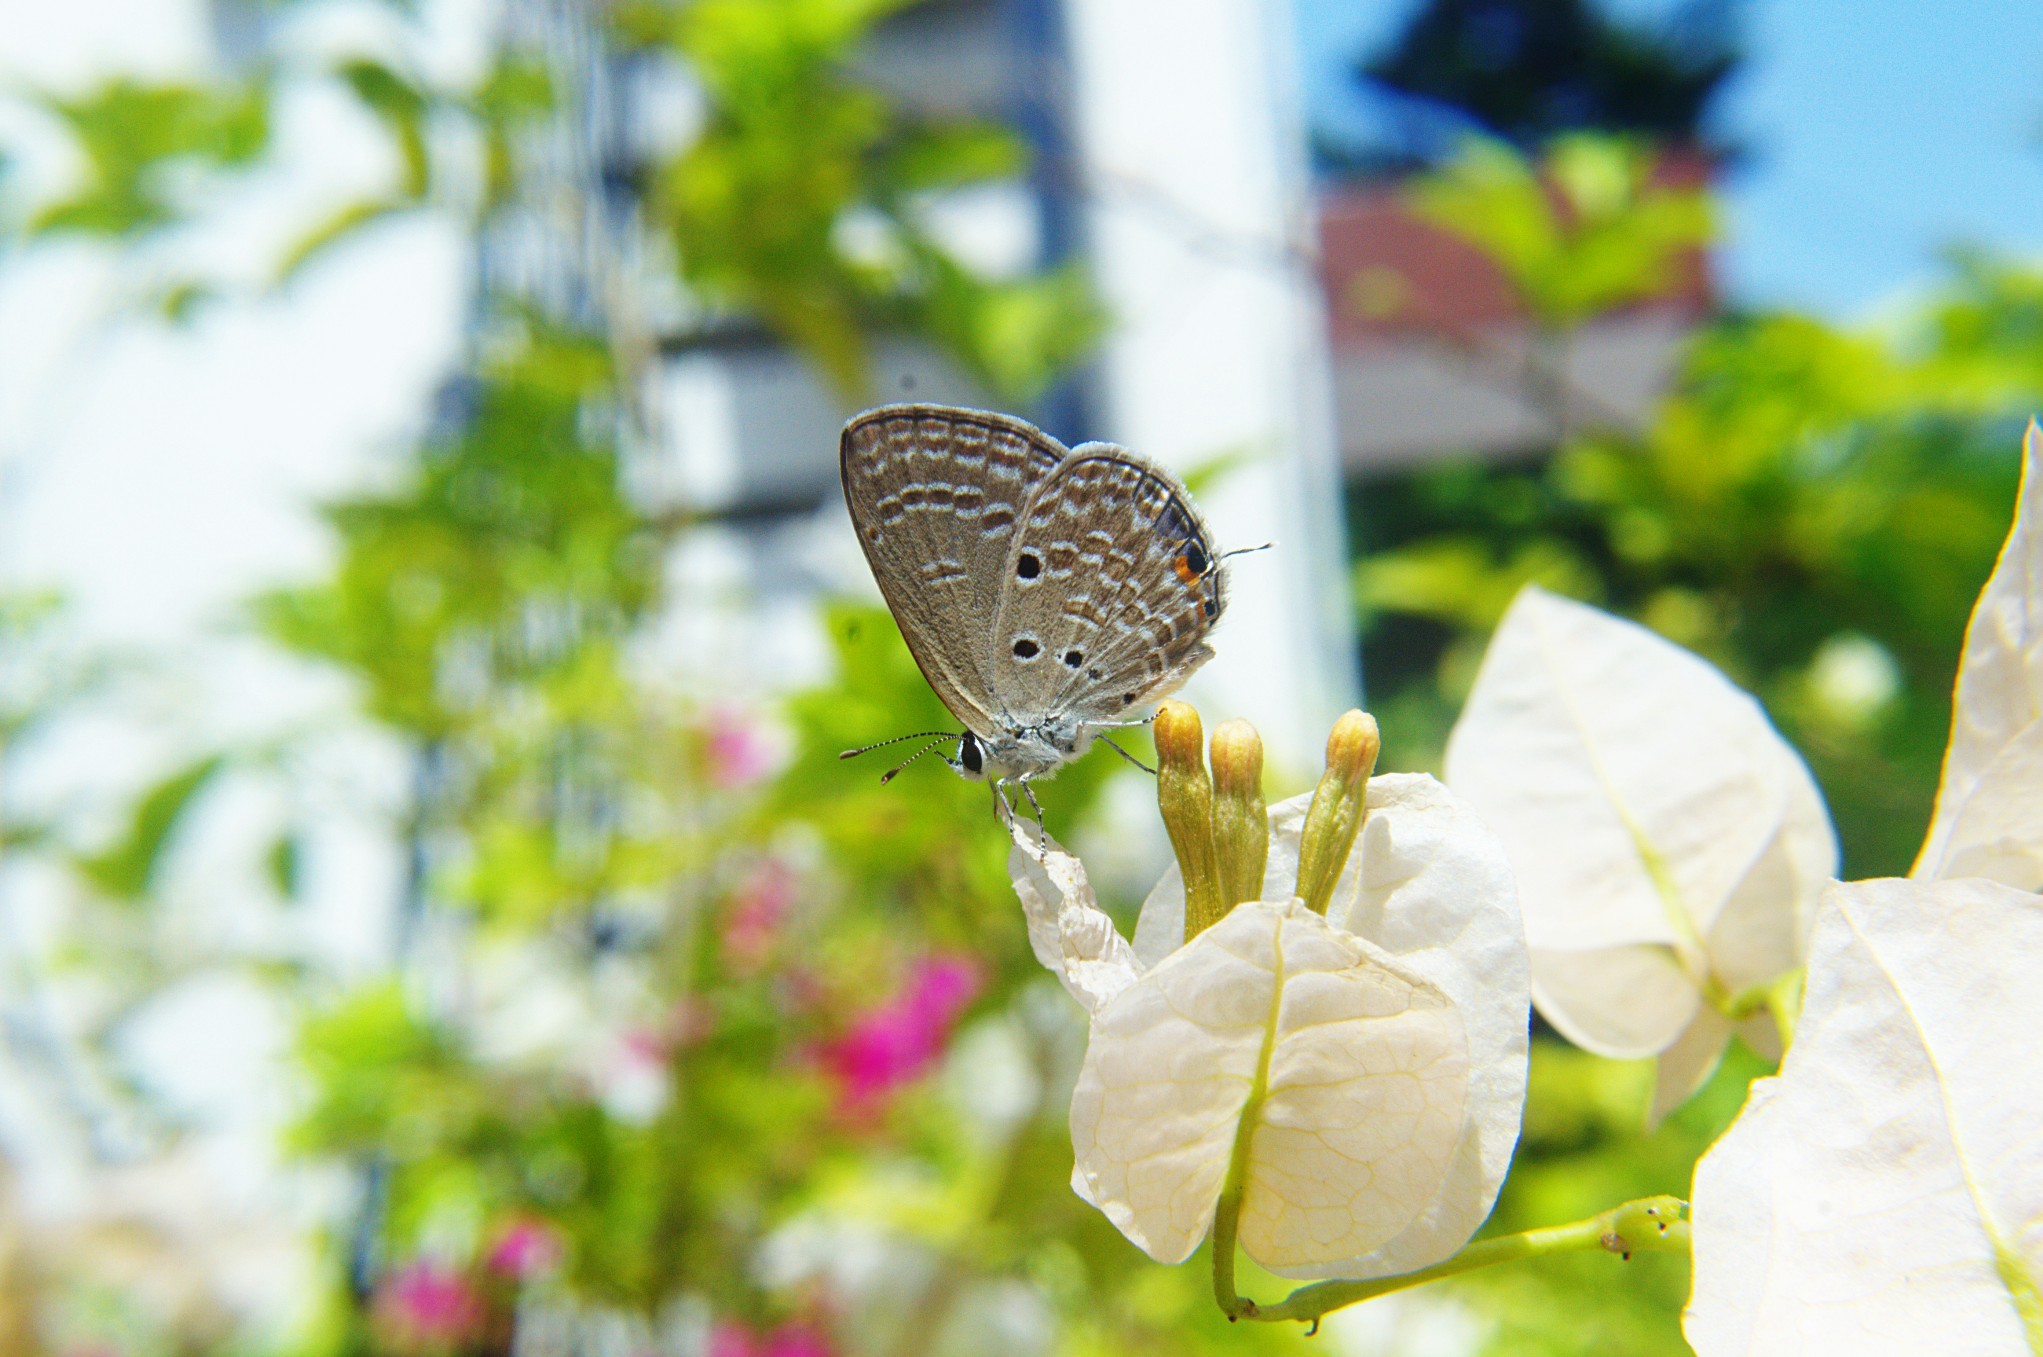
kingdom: Animalia
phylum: Arthropoda
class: Insecta
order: Lepidoptera
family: Lycaenidae
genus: Luthrodes
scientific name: Luthrodes pandava
